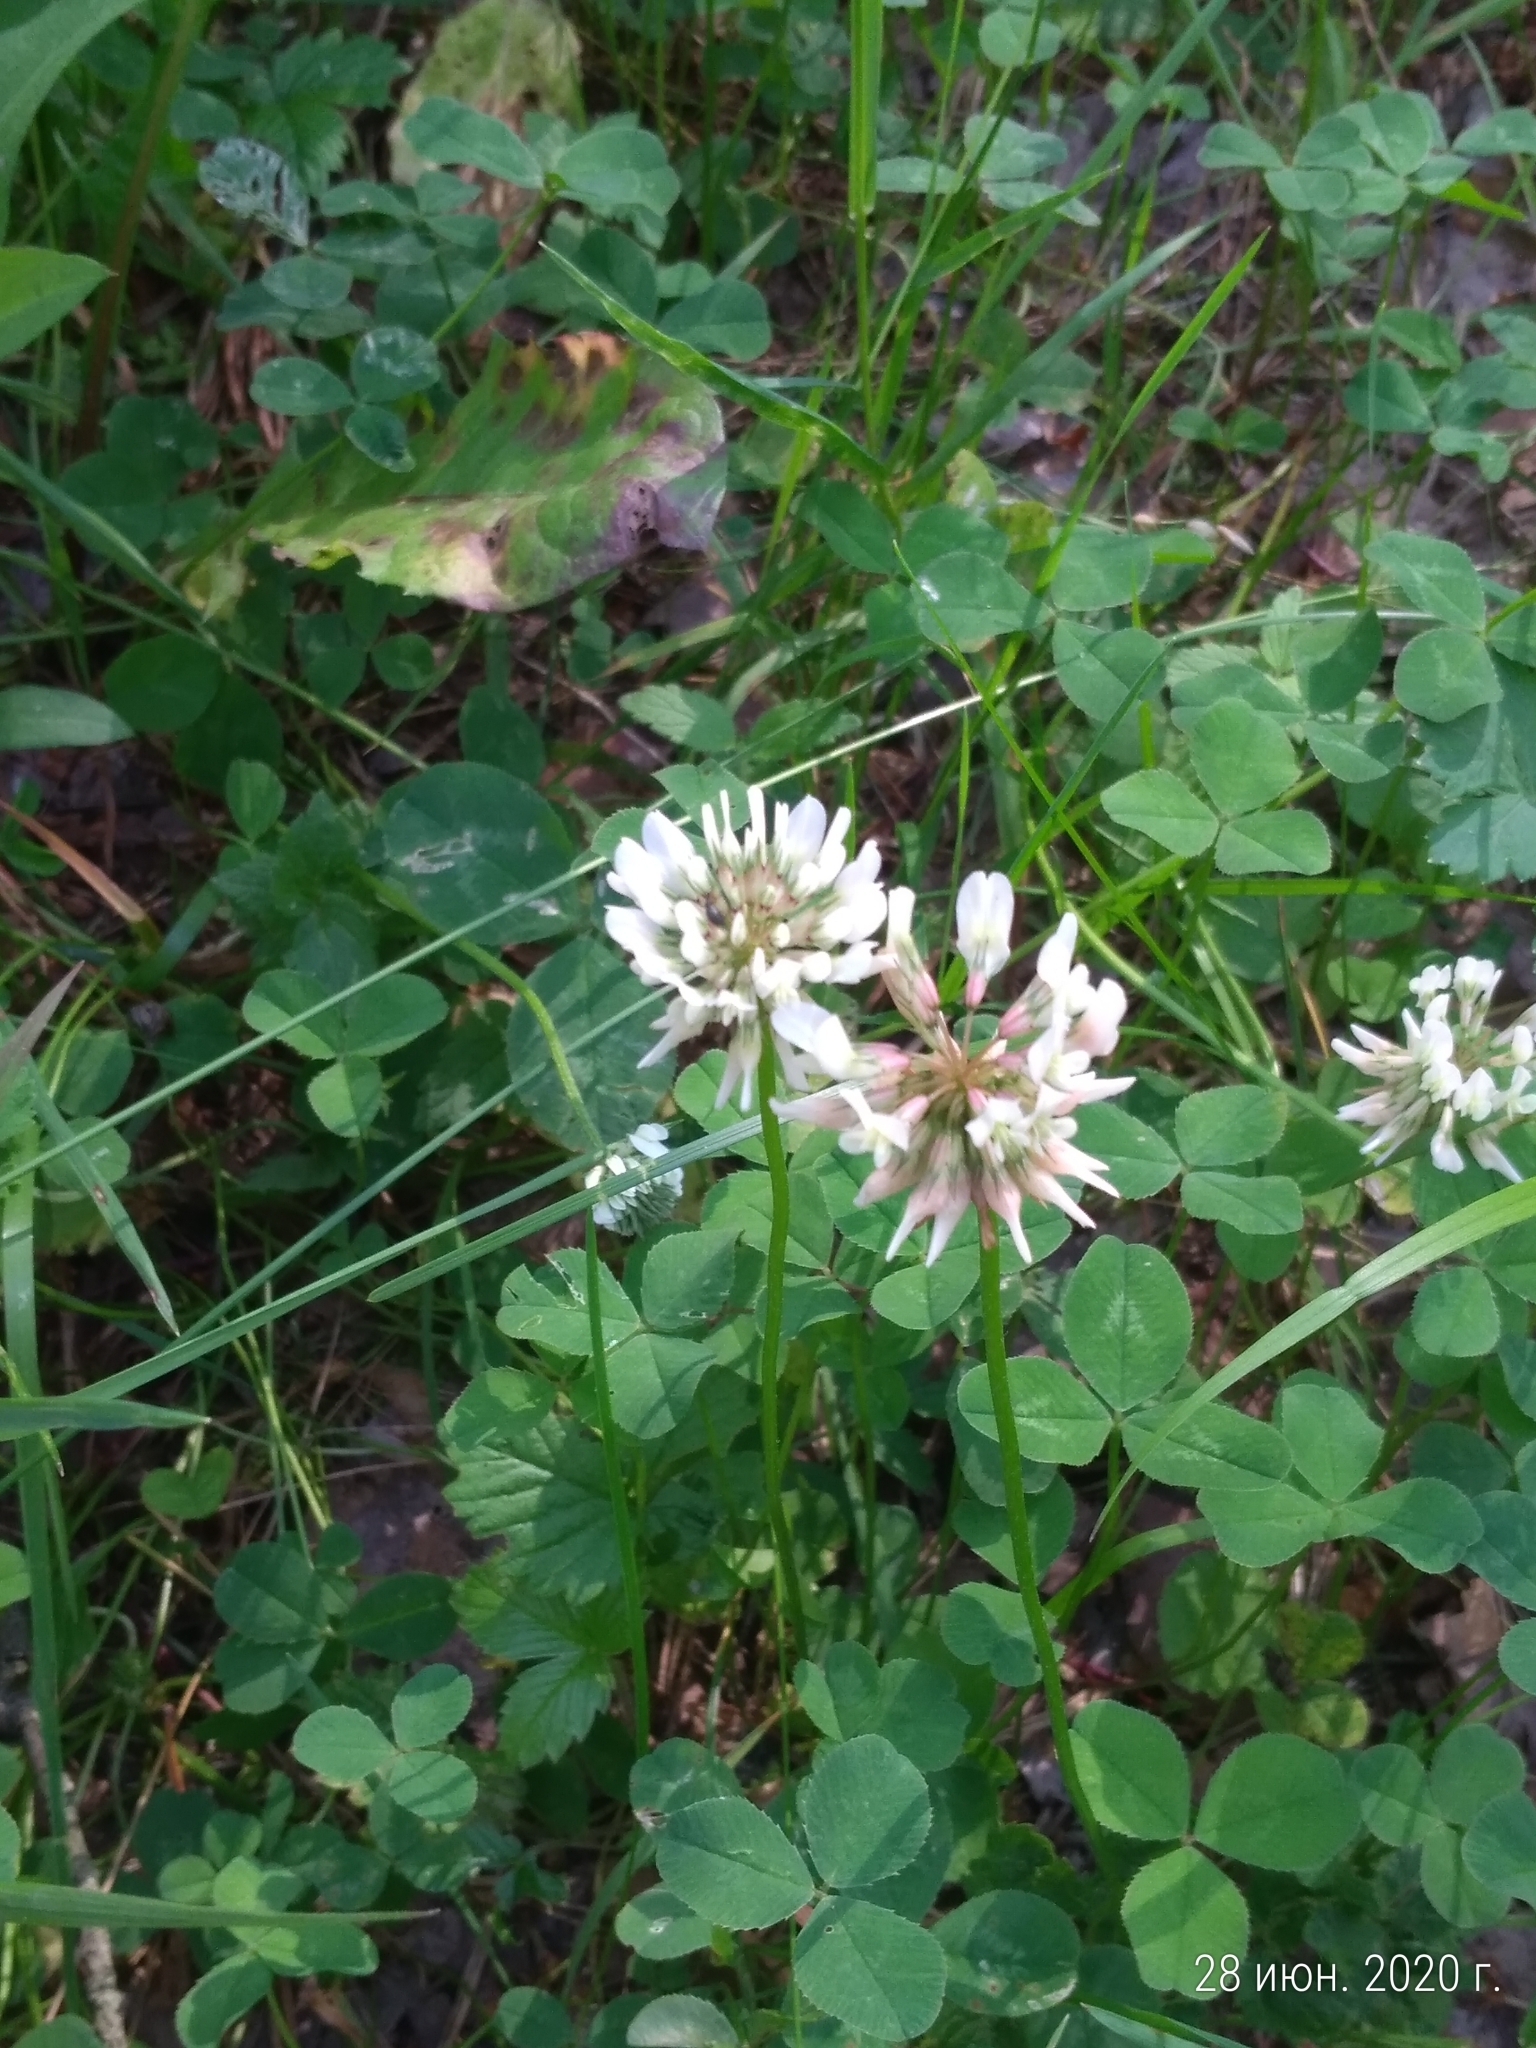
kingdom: Plantae
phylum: Tracheophyta
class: Magnoliopsida
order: Fabales
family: Fabaceae
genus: Trifolium
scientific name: Trifolium repens
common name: White clover
